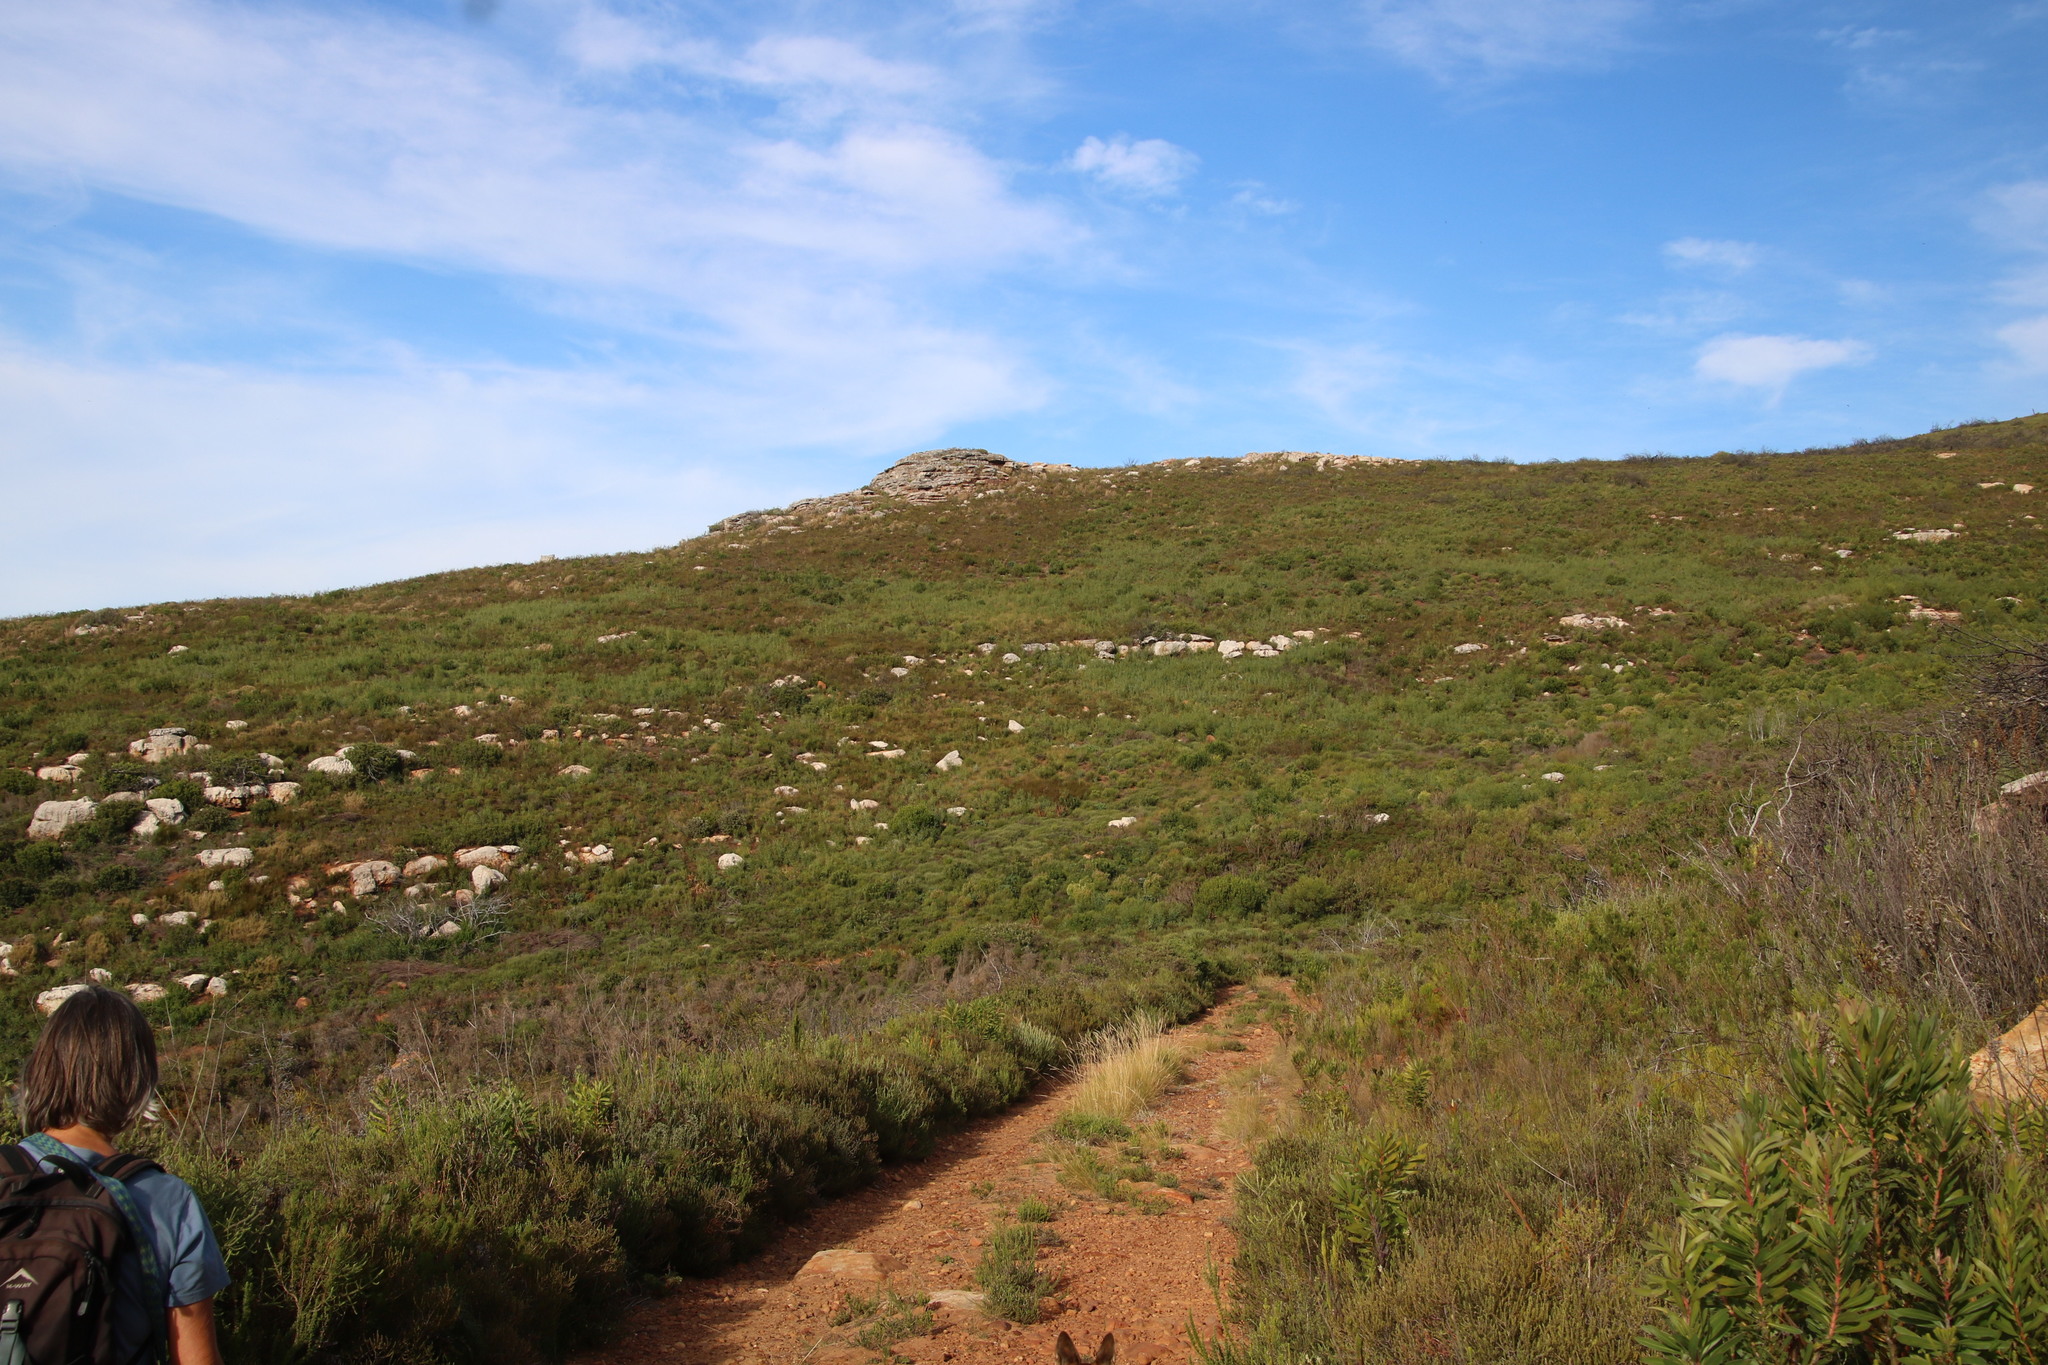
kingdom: Plantae
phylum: Tracheophyta
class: Magnoliopsida
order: Fabales
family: Fabaceae
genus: Acacia
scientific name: Acacia saligna
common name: Orange wattle
